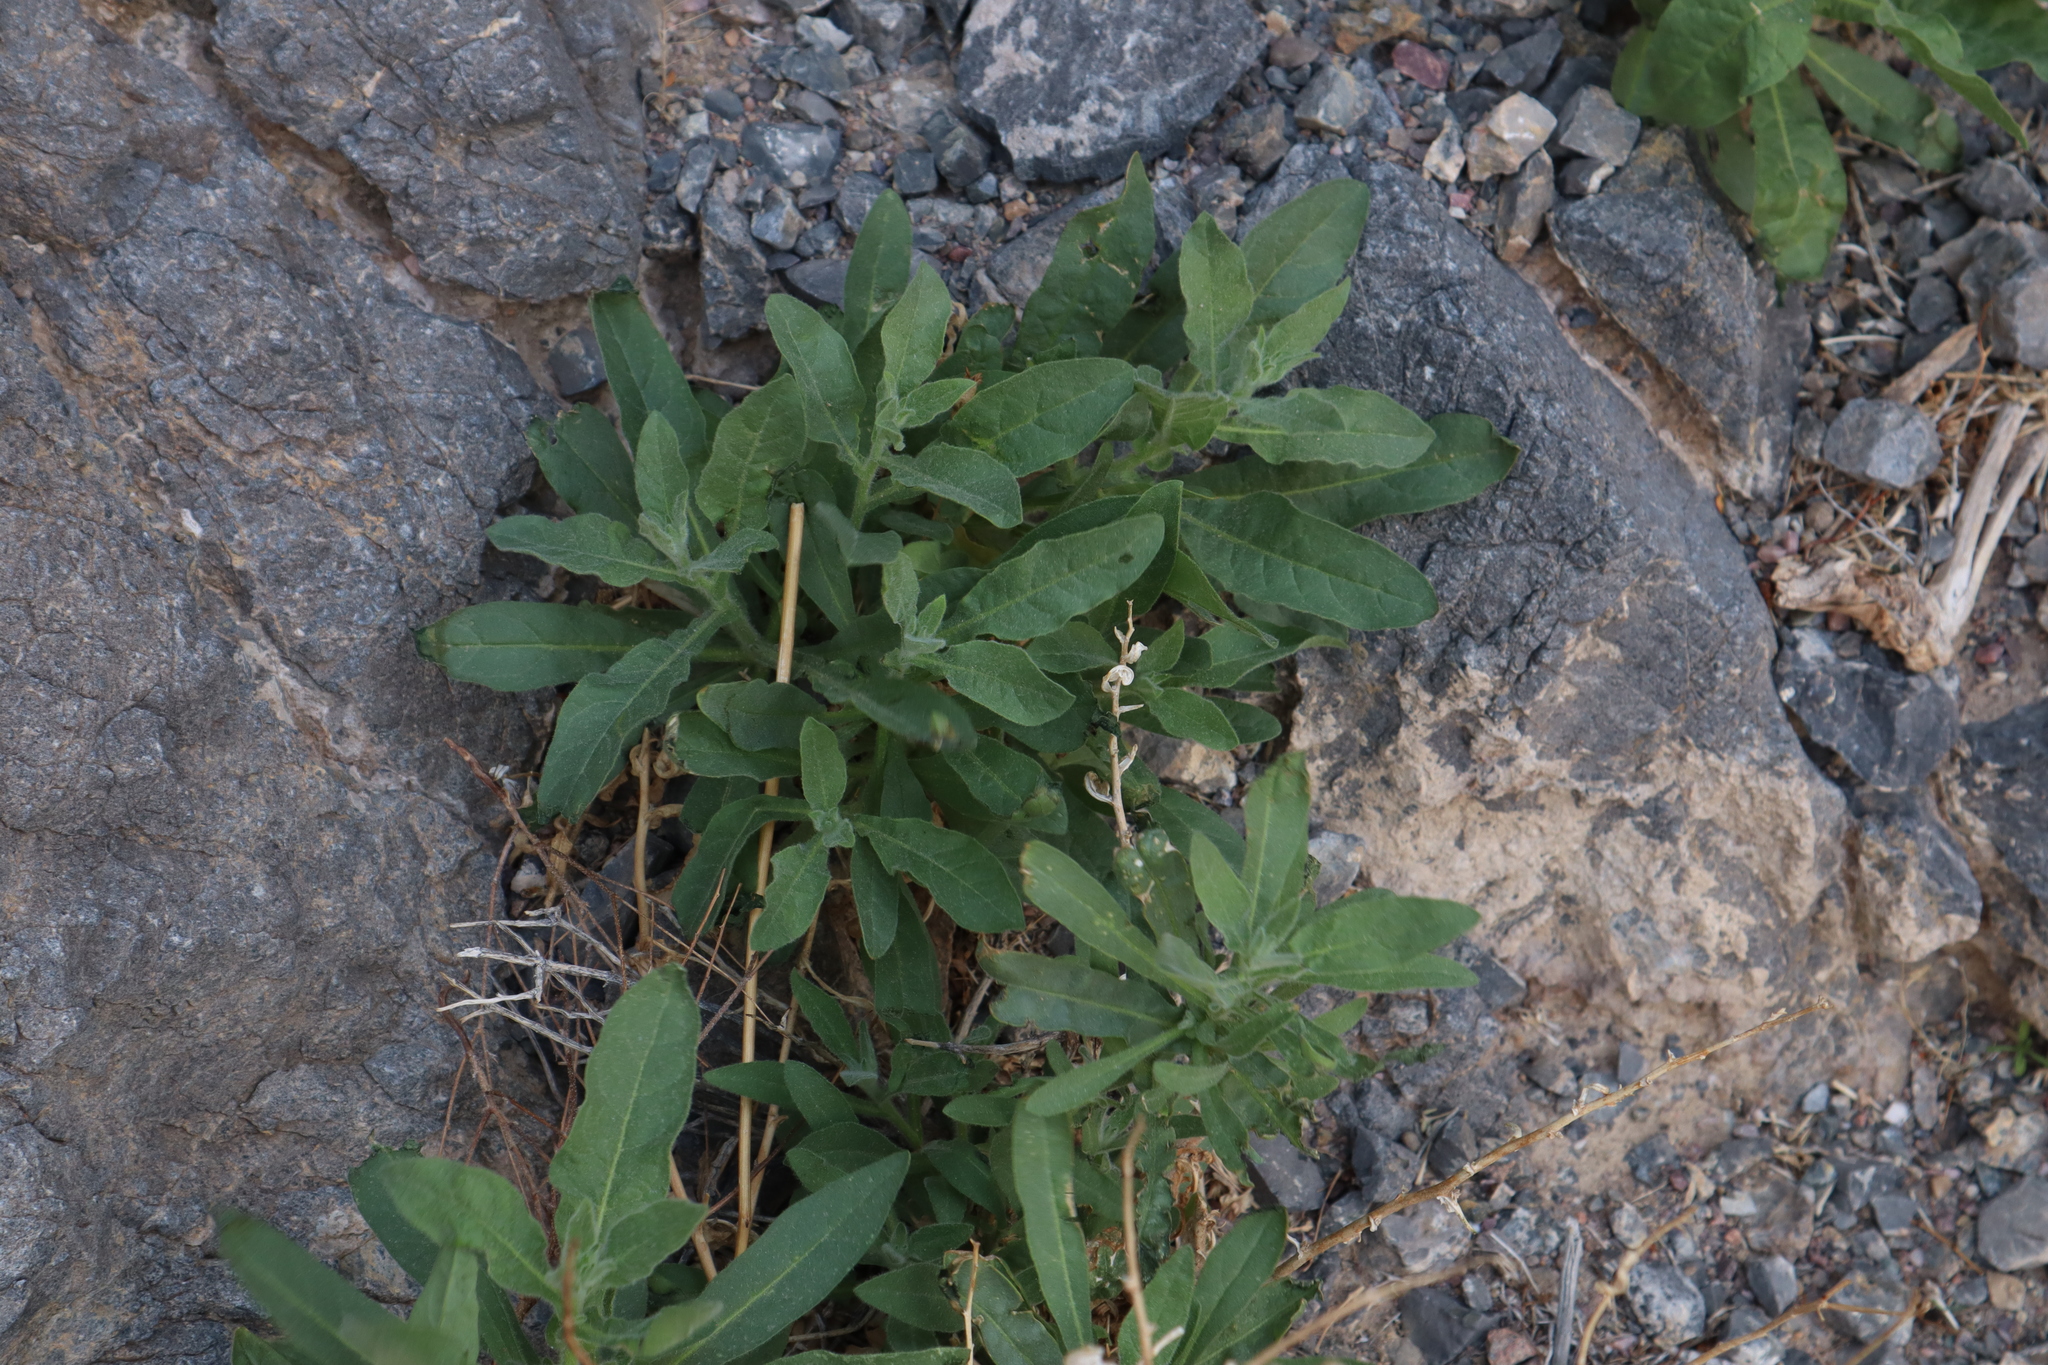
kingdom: Plantae
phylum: Tracheophyta
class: Magnoliopsida
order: Solanales
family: Solanaceae
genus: Nicotiana
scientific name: Nicotiana obtusifolia
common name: Desert tobacco
